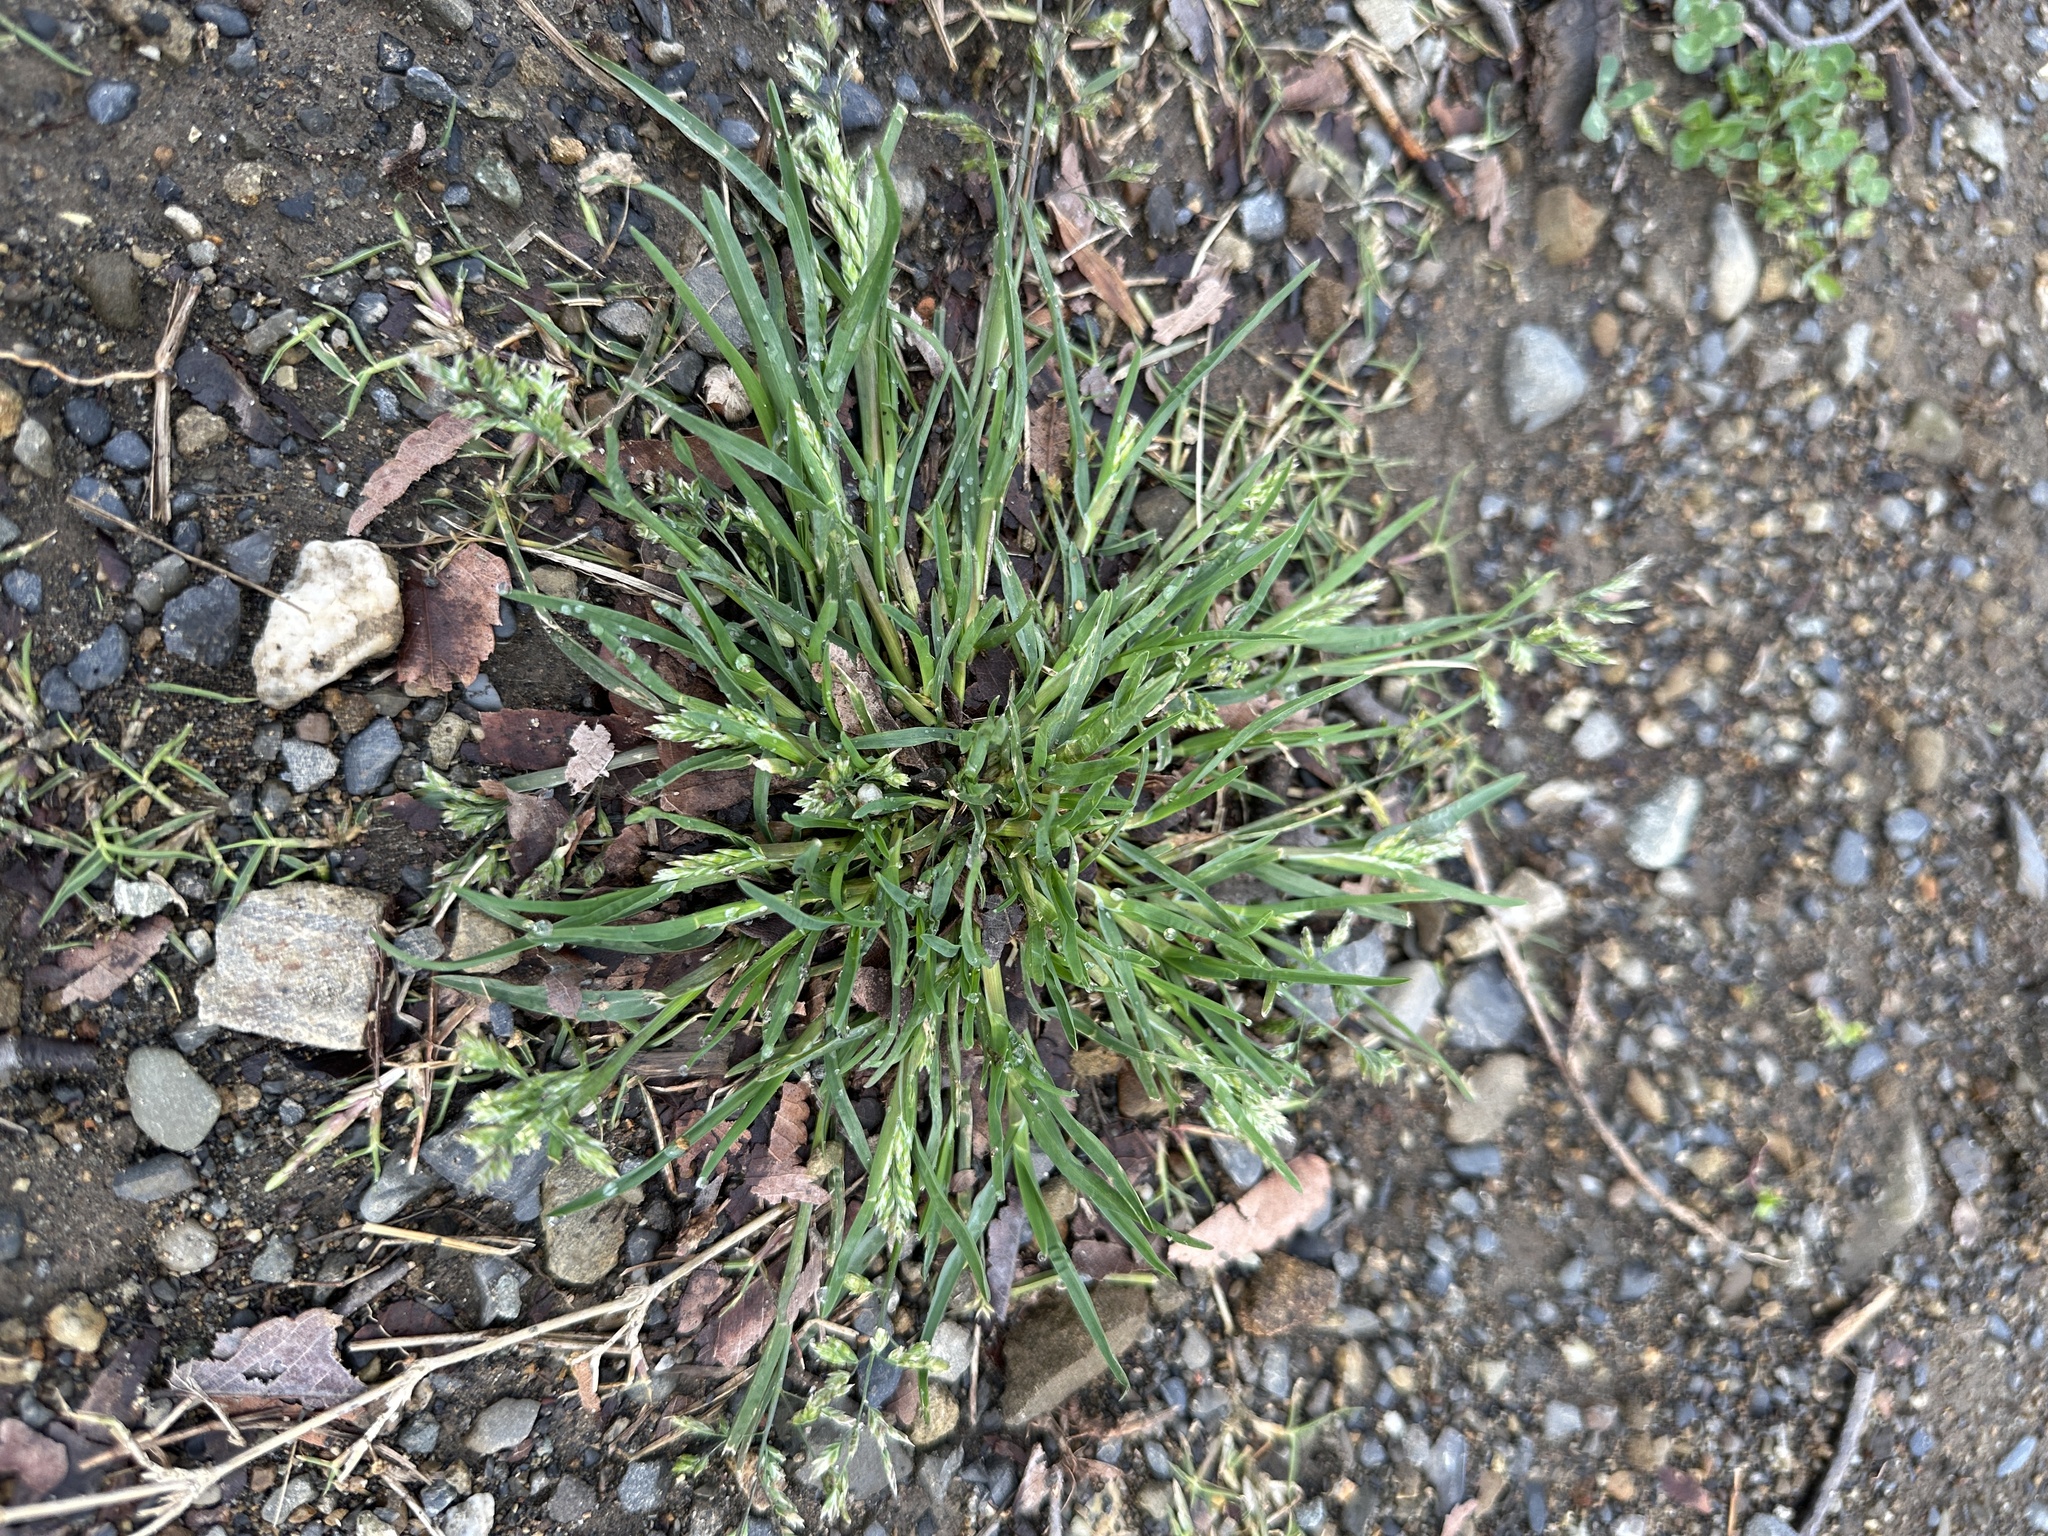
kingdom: Plantae
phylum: Tracheophyta
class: Liliopsida
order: Poales
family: Poaceae
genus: Poa
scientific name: Poa annua
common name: Annual bluegrass
